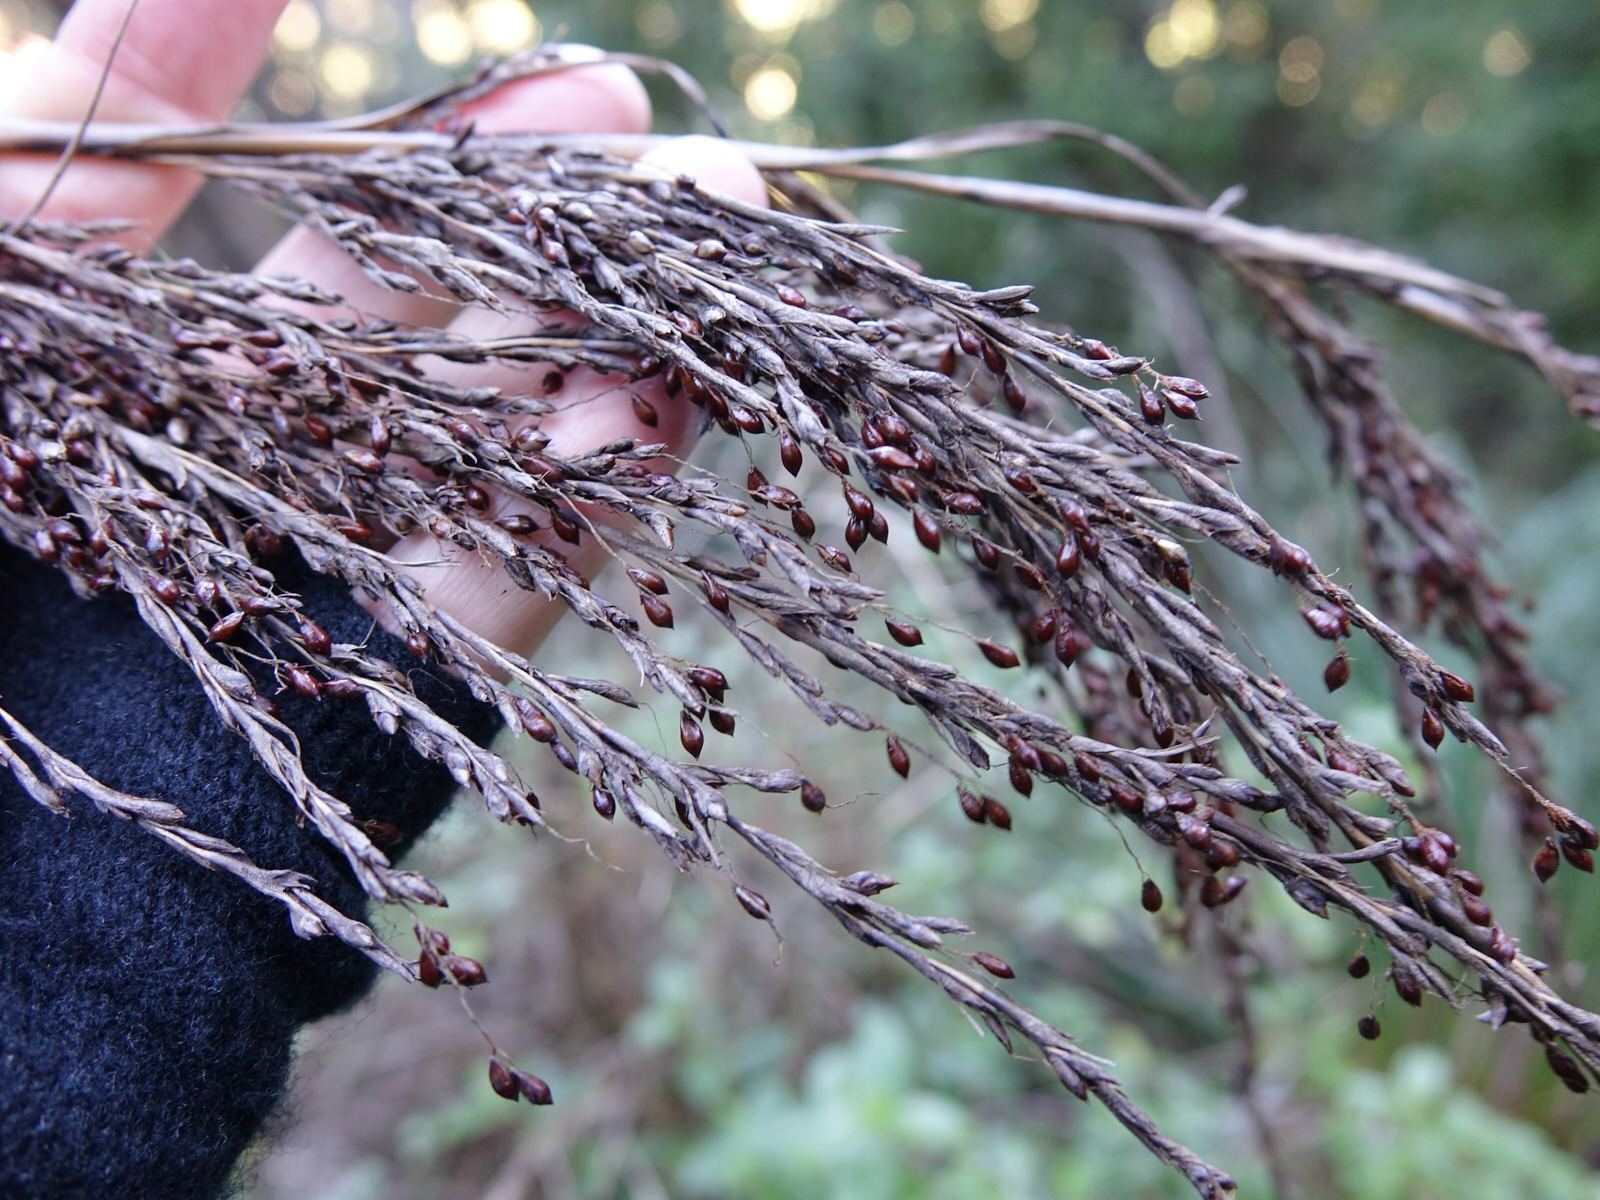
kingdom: Plantae
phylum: Tracheophyta
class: Liliopsida
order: Poales
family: Cyperaceae
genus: Gahnia
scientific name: Gahnia setifolia
